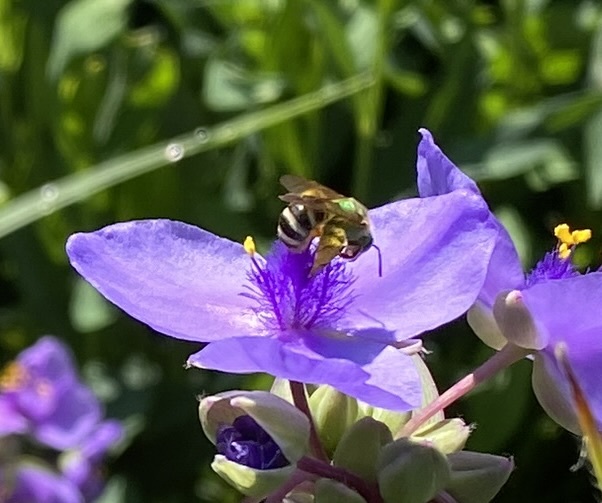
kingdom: Animalia
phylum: Arthropoda
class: Insecta
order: Hymenoptera
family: Halictidae
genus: Agapostemon
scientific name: Agapostemon virescens
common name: Bicolored striped sweat bee
